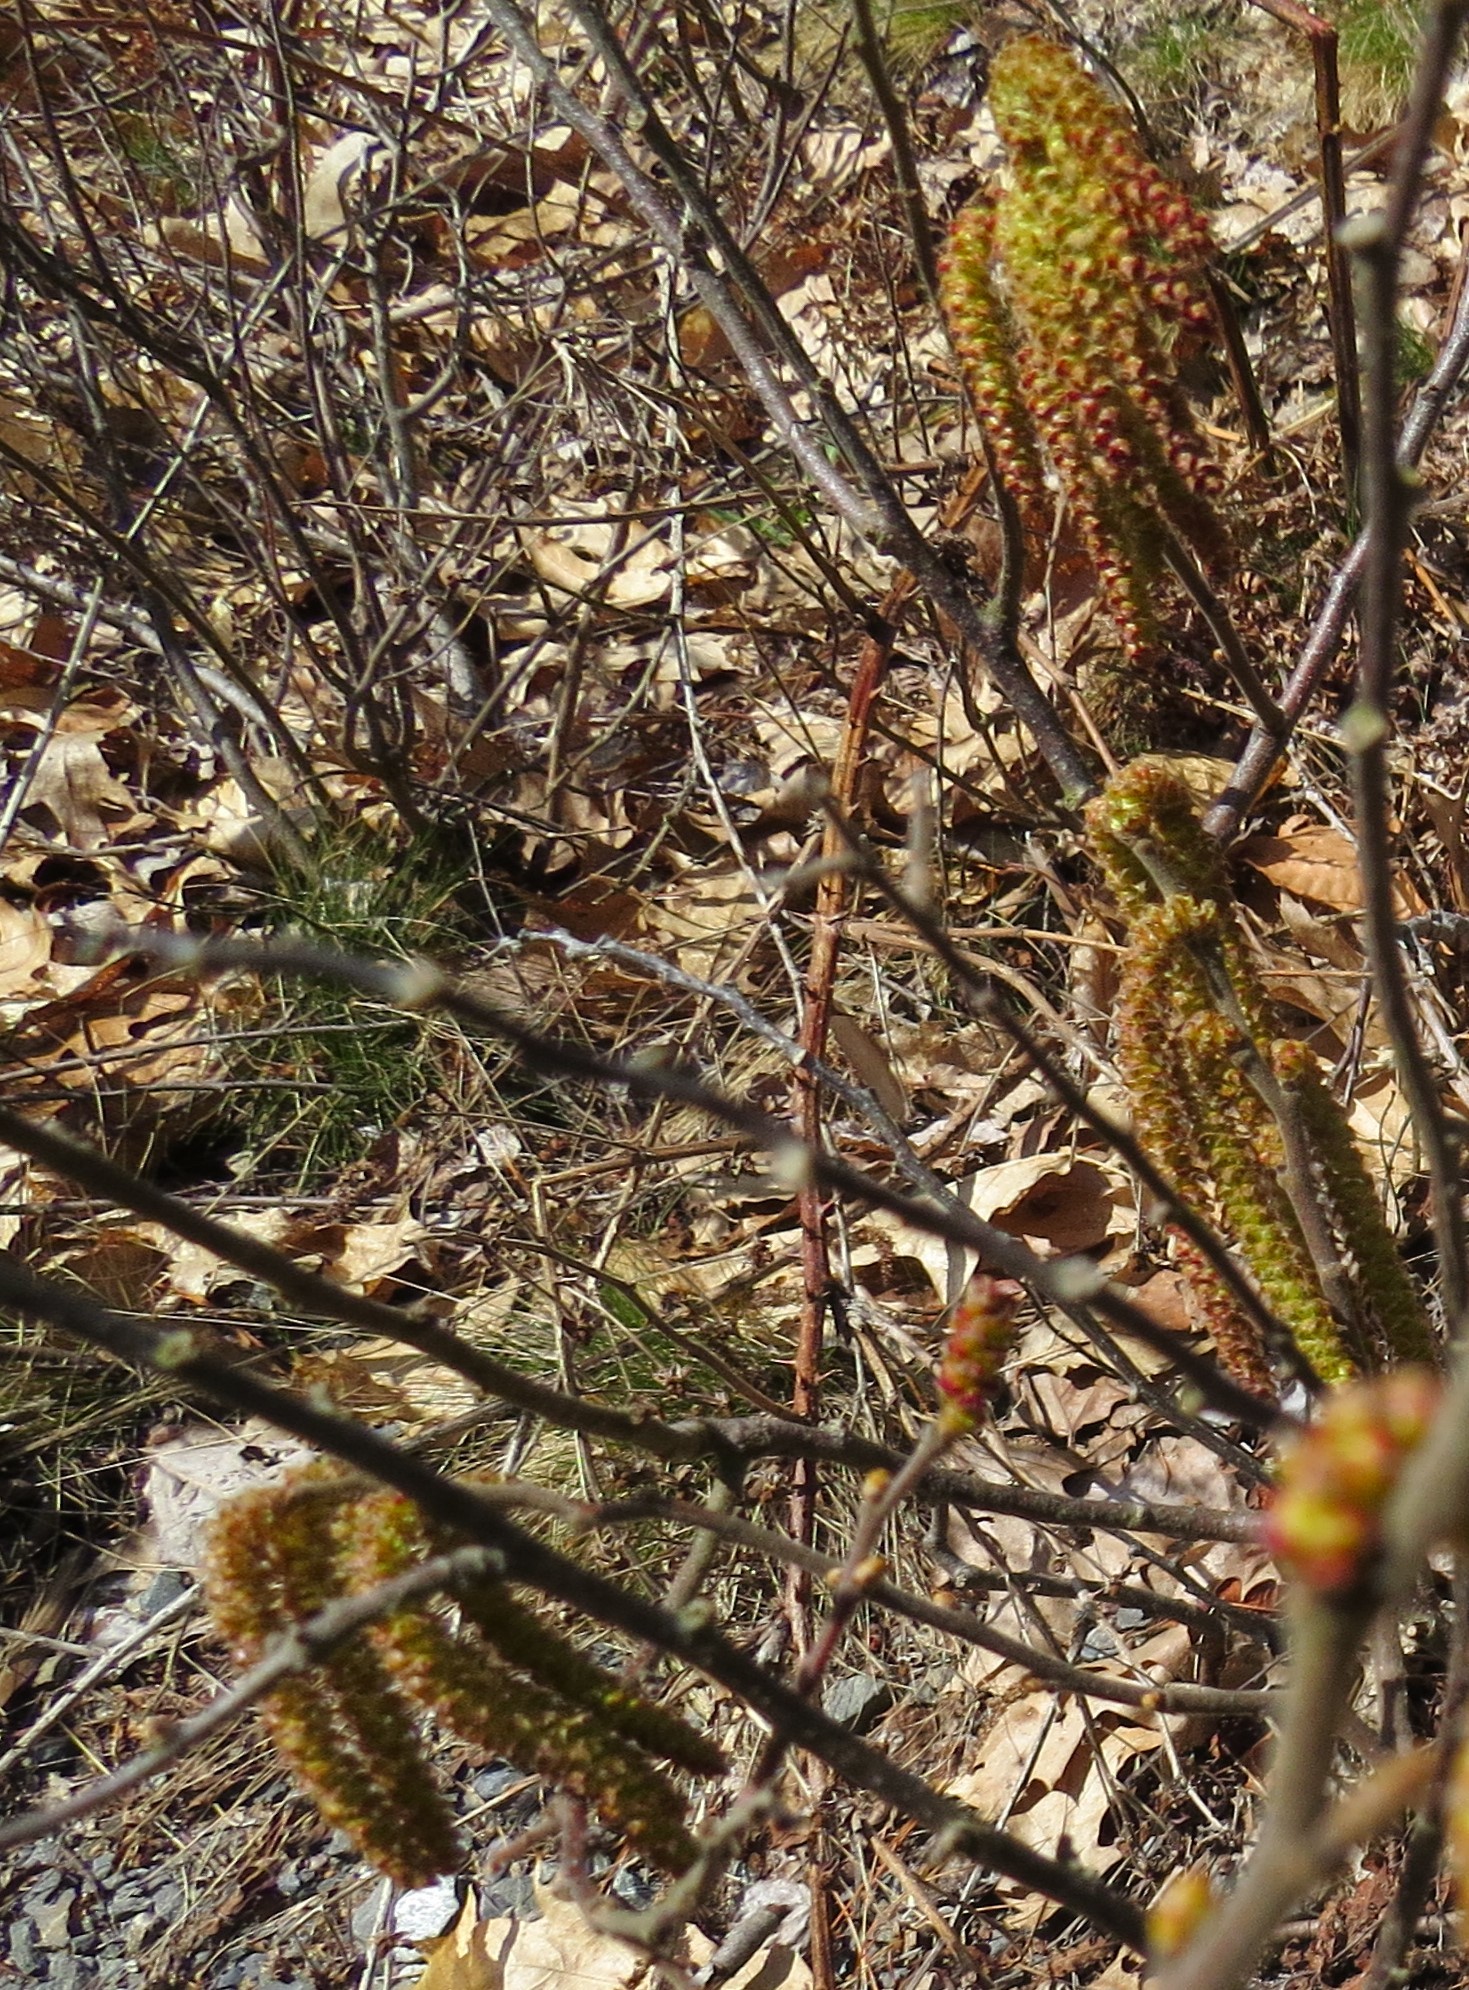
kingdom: Plantae
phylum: Tracheophyta
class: Magnoliopsida
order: Fagales
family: Myricaceae
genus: Comptonia
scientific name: Comptonia peregrina
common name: Sweet-fern
